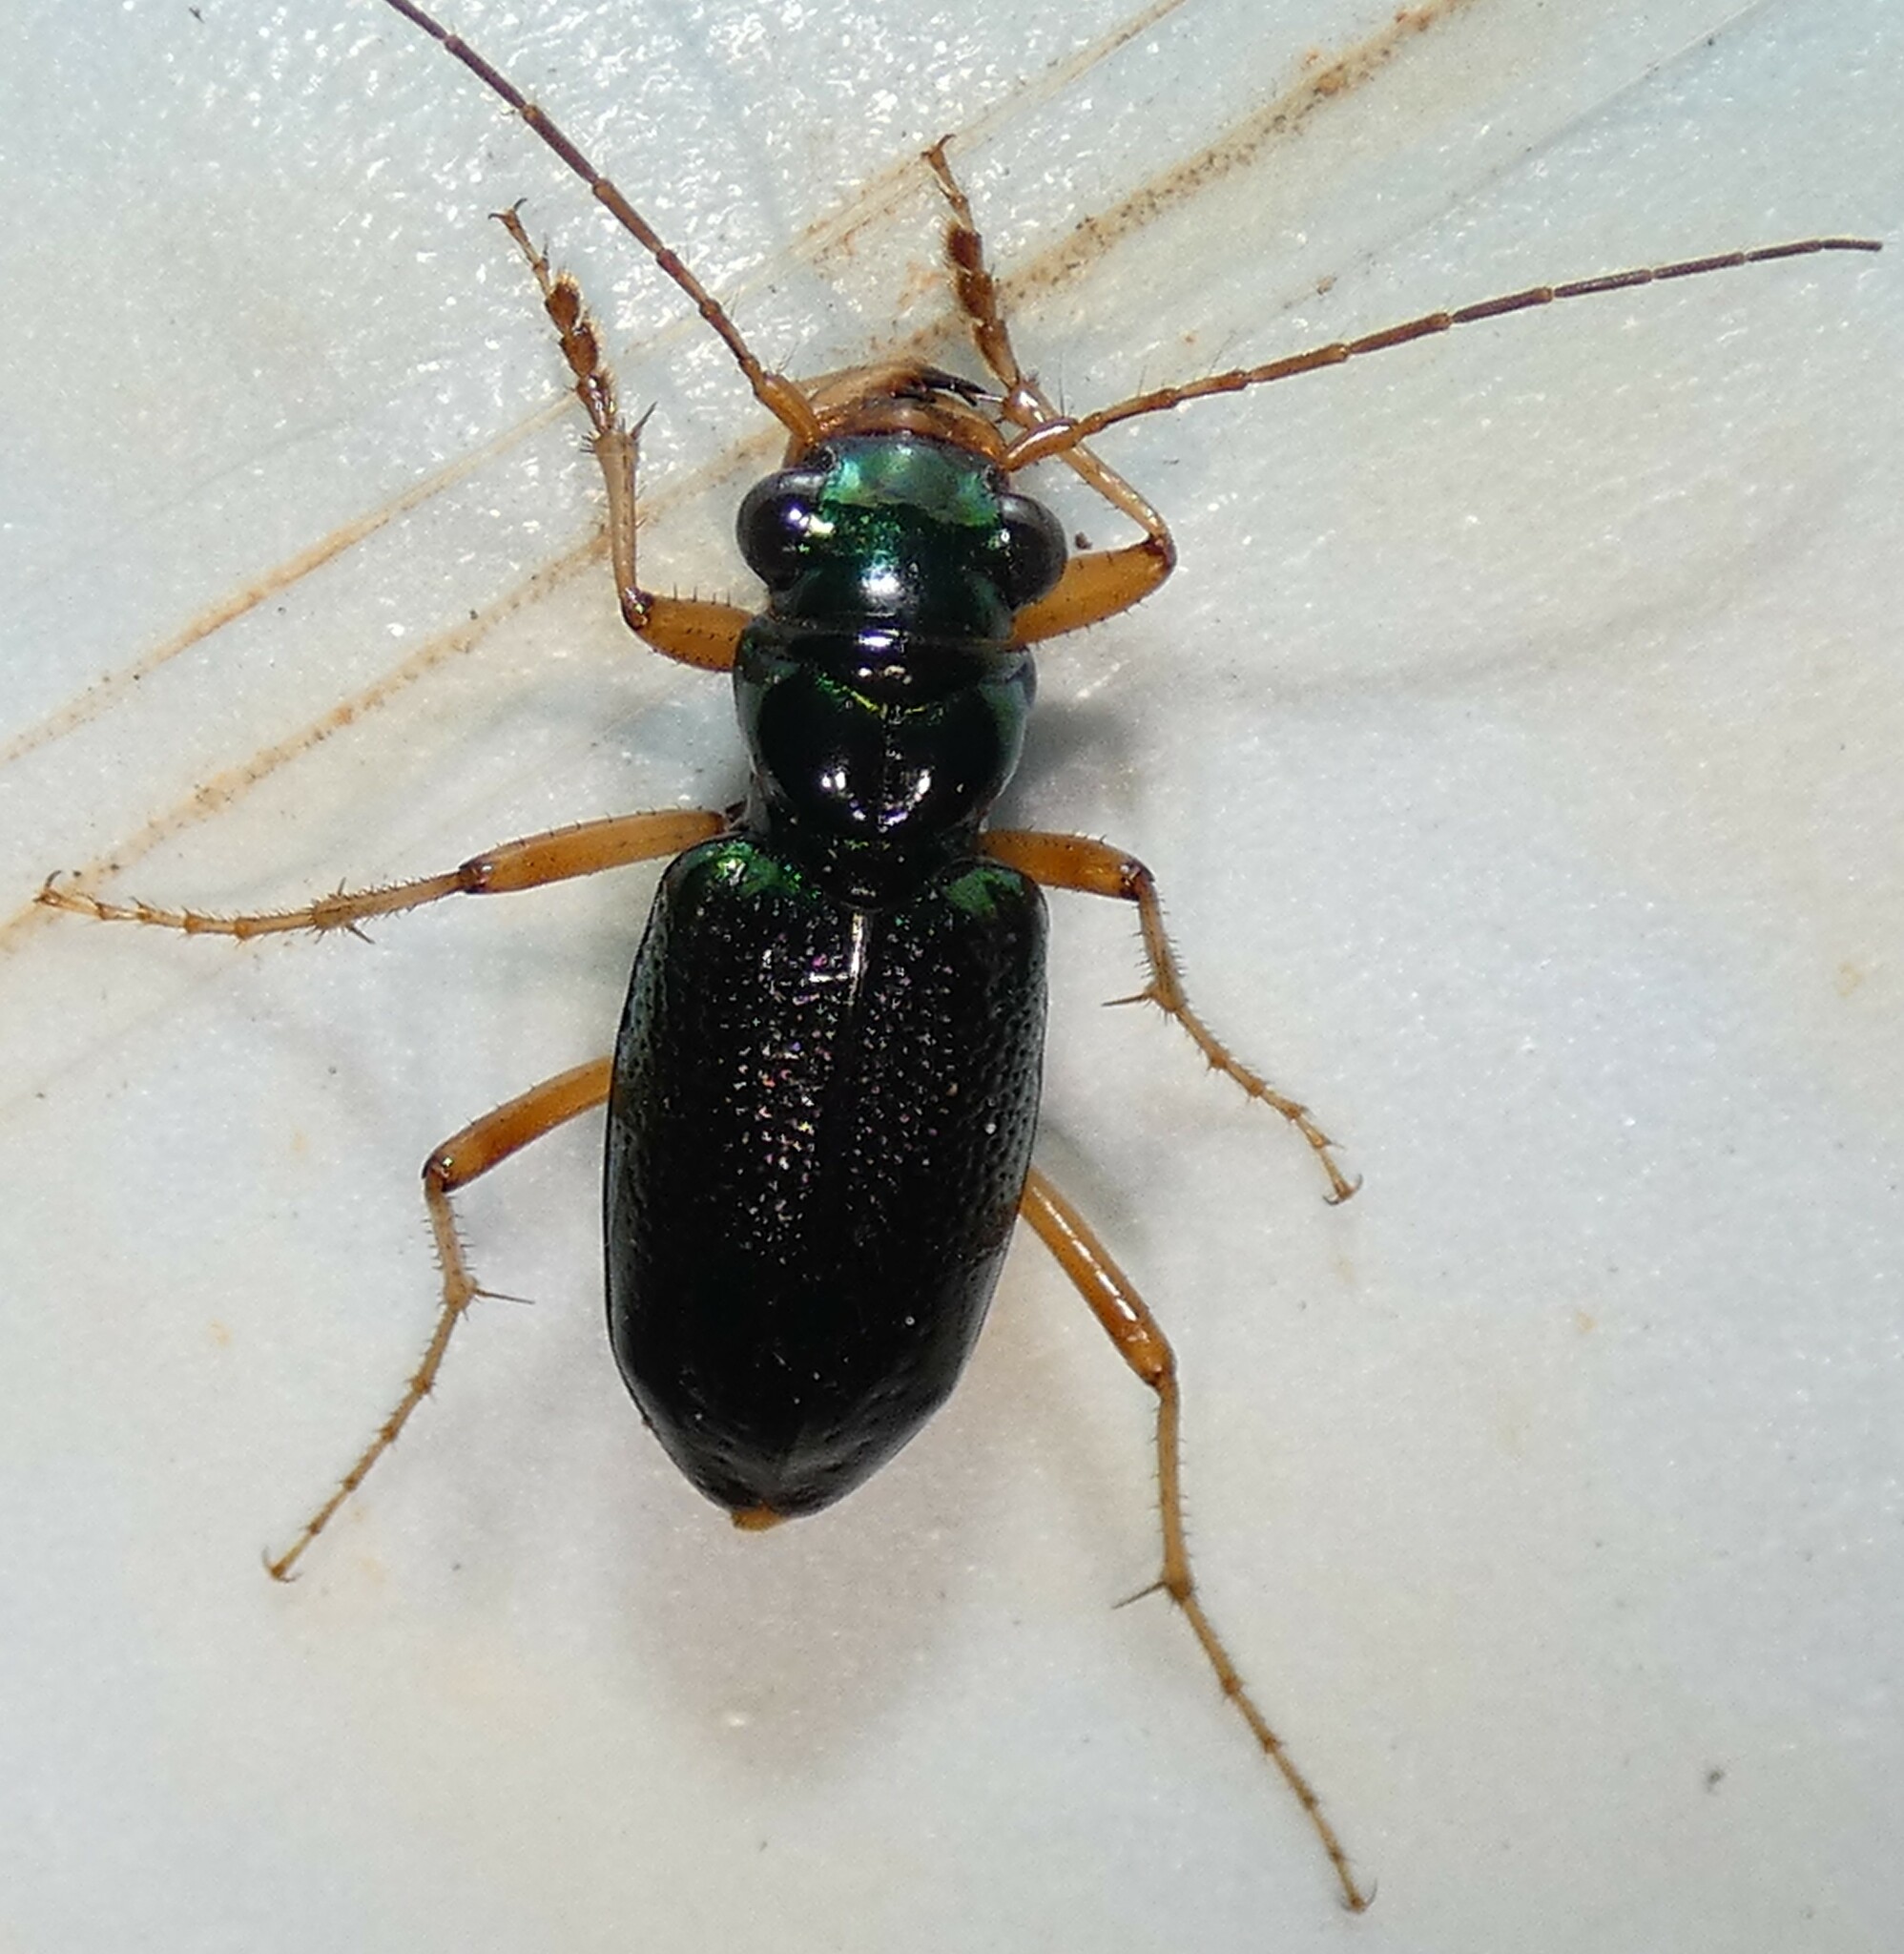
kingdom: Animalia
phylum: Arthropoda
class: Insecta
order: Coleoptera
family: Carabidae
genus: Tetracha
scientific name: Tetracha virginica
